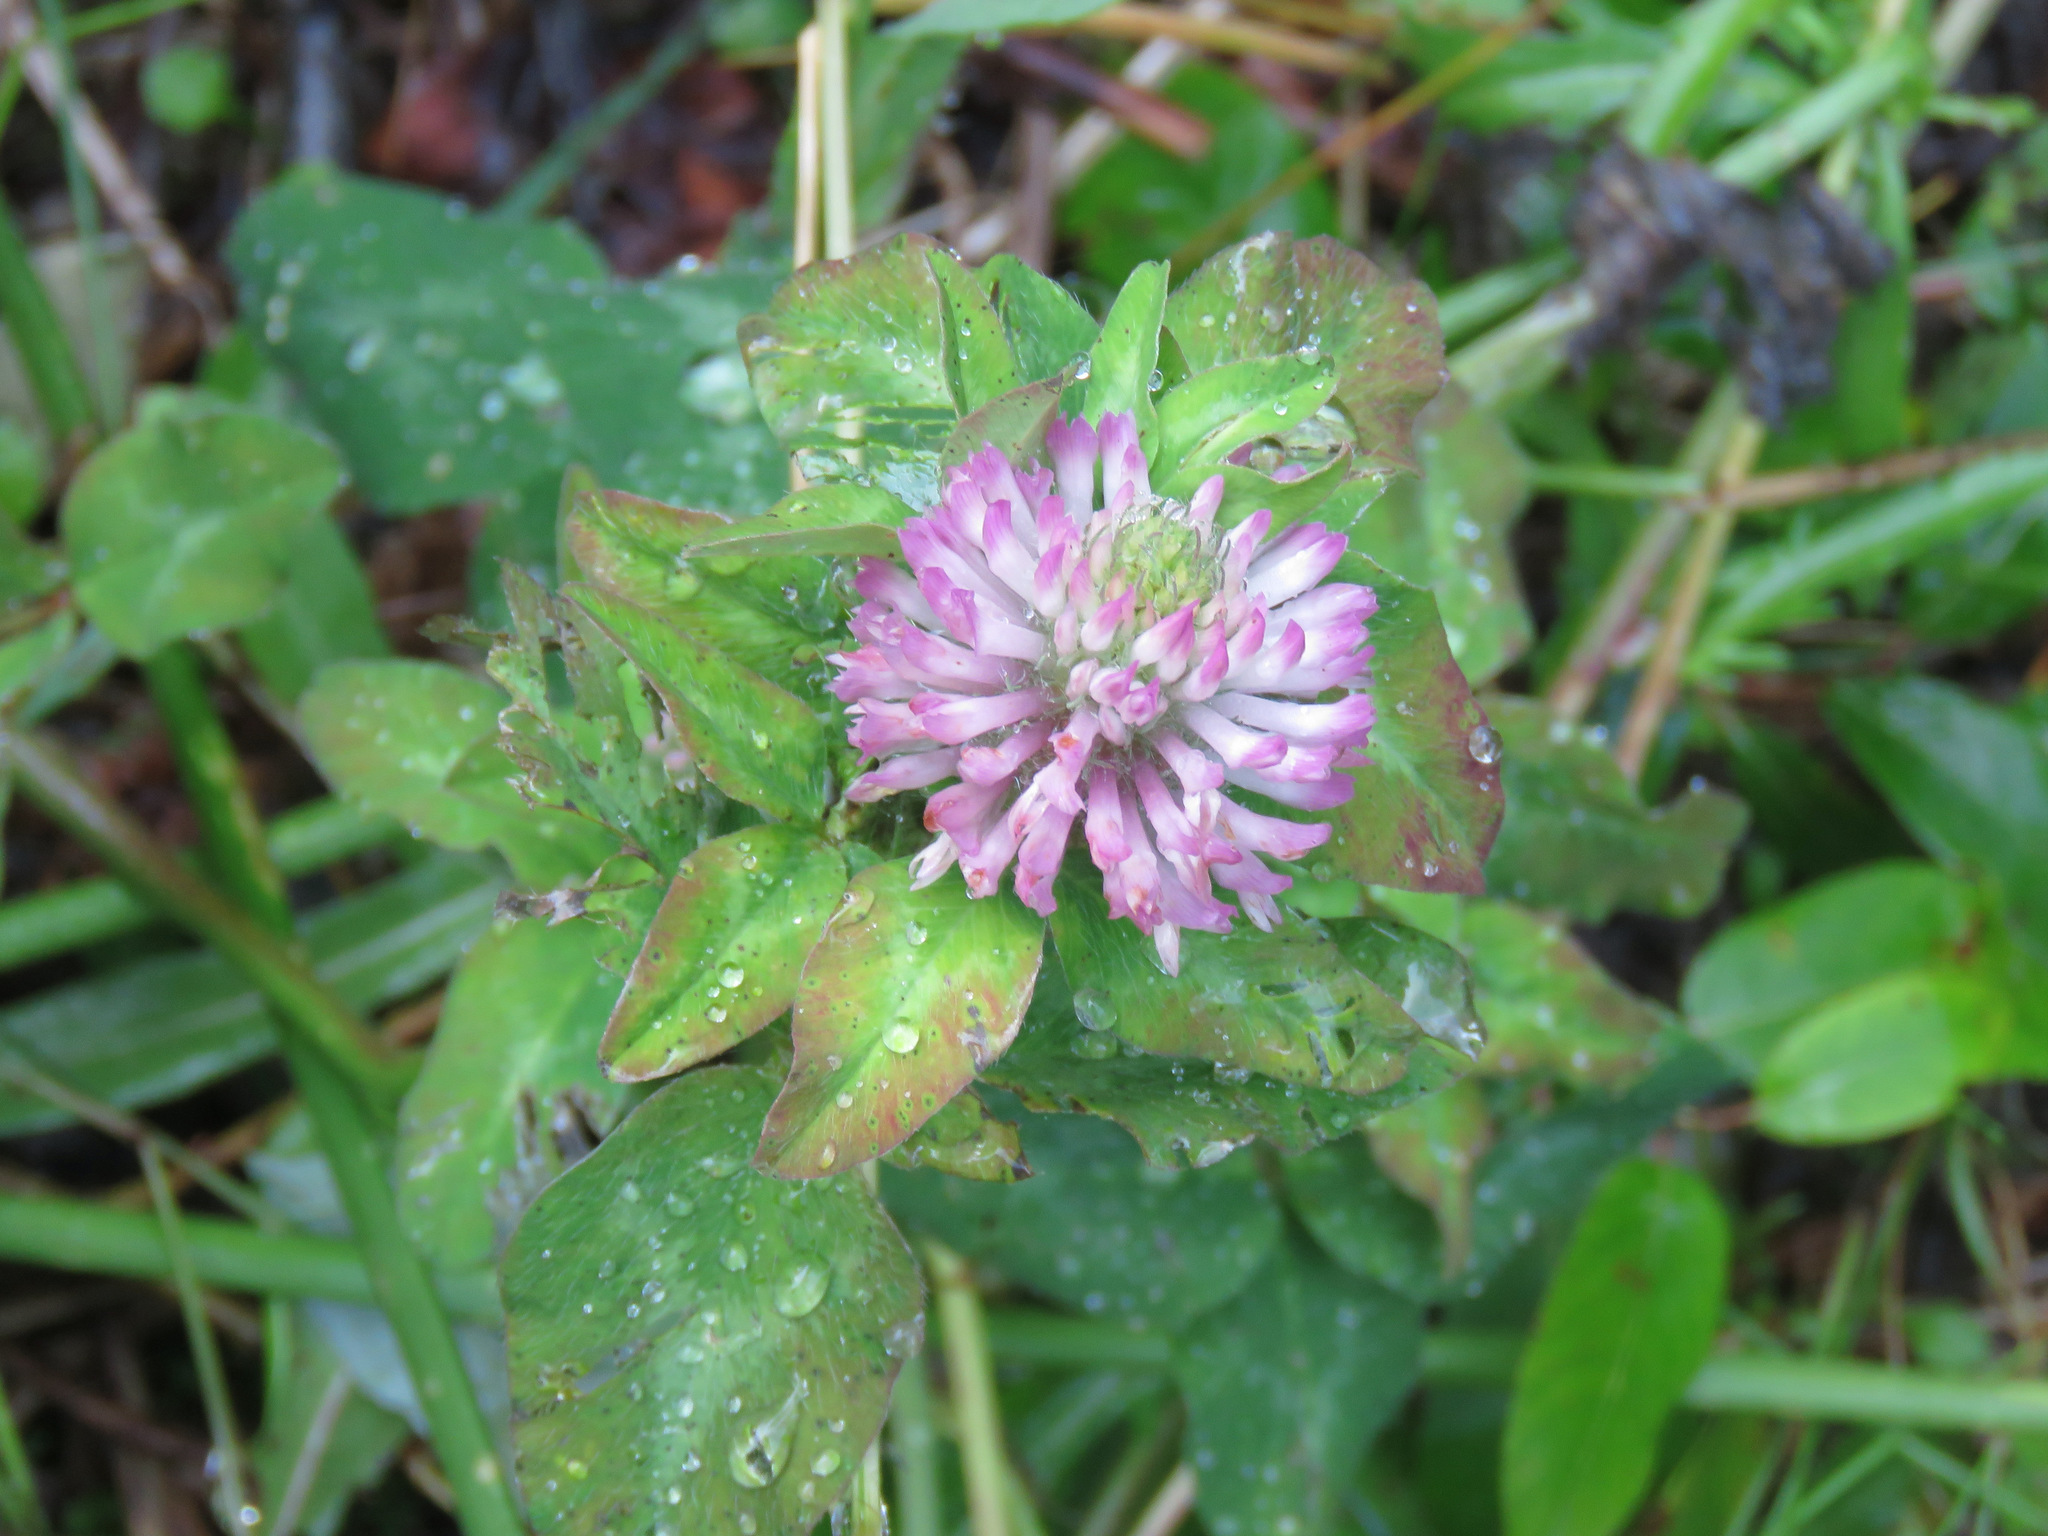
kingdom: Plantae
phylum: Tracheophyta
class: Magnoliopsida
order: Fabales
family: Fabaceae
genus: Trifolium
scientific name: Trifolium pratense
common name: Red clover
